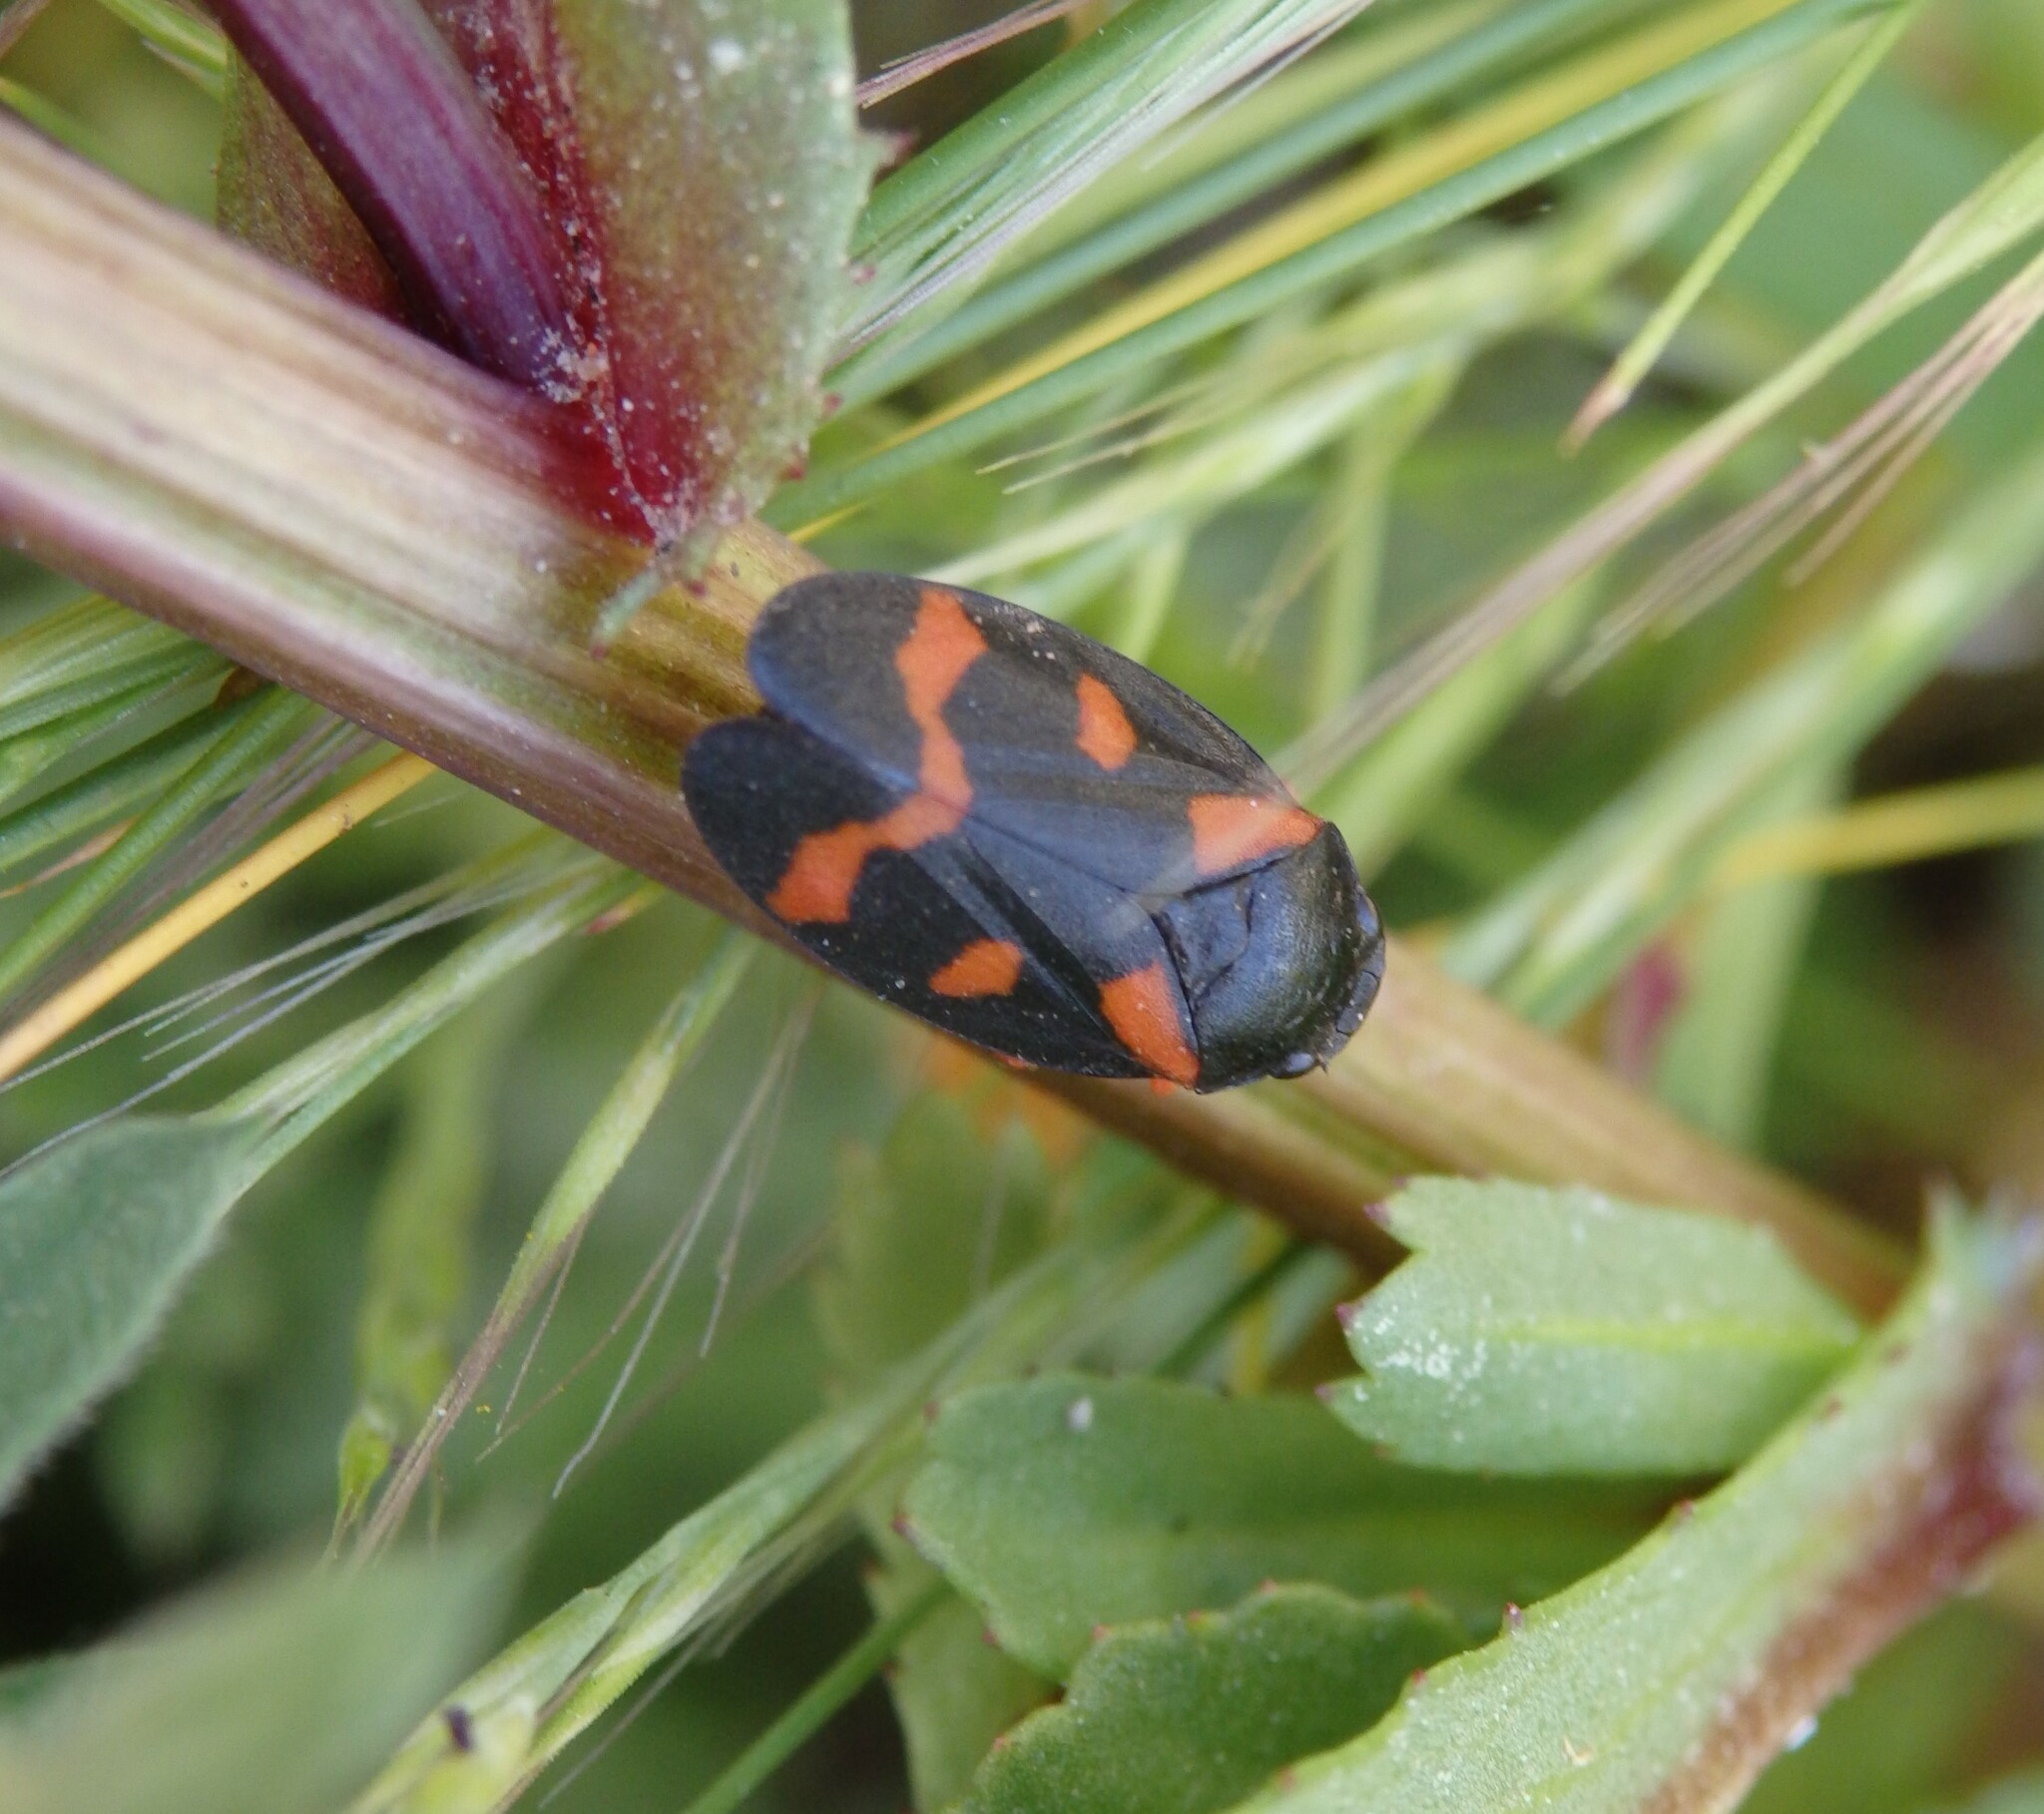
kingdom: Animalia
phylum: Arthropoda
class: Insecta
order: Hemiptera
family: Cercopidae
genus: Cercopis
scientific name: Cercopis intermedia
